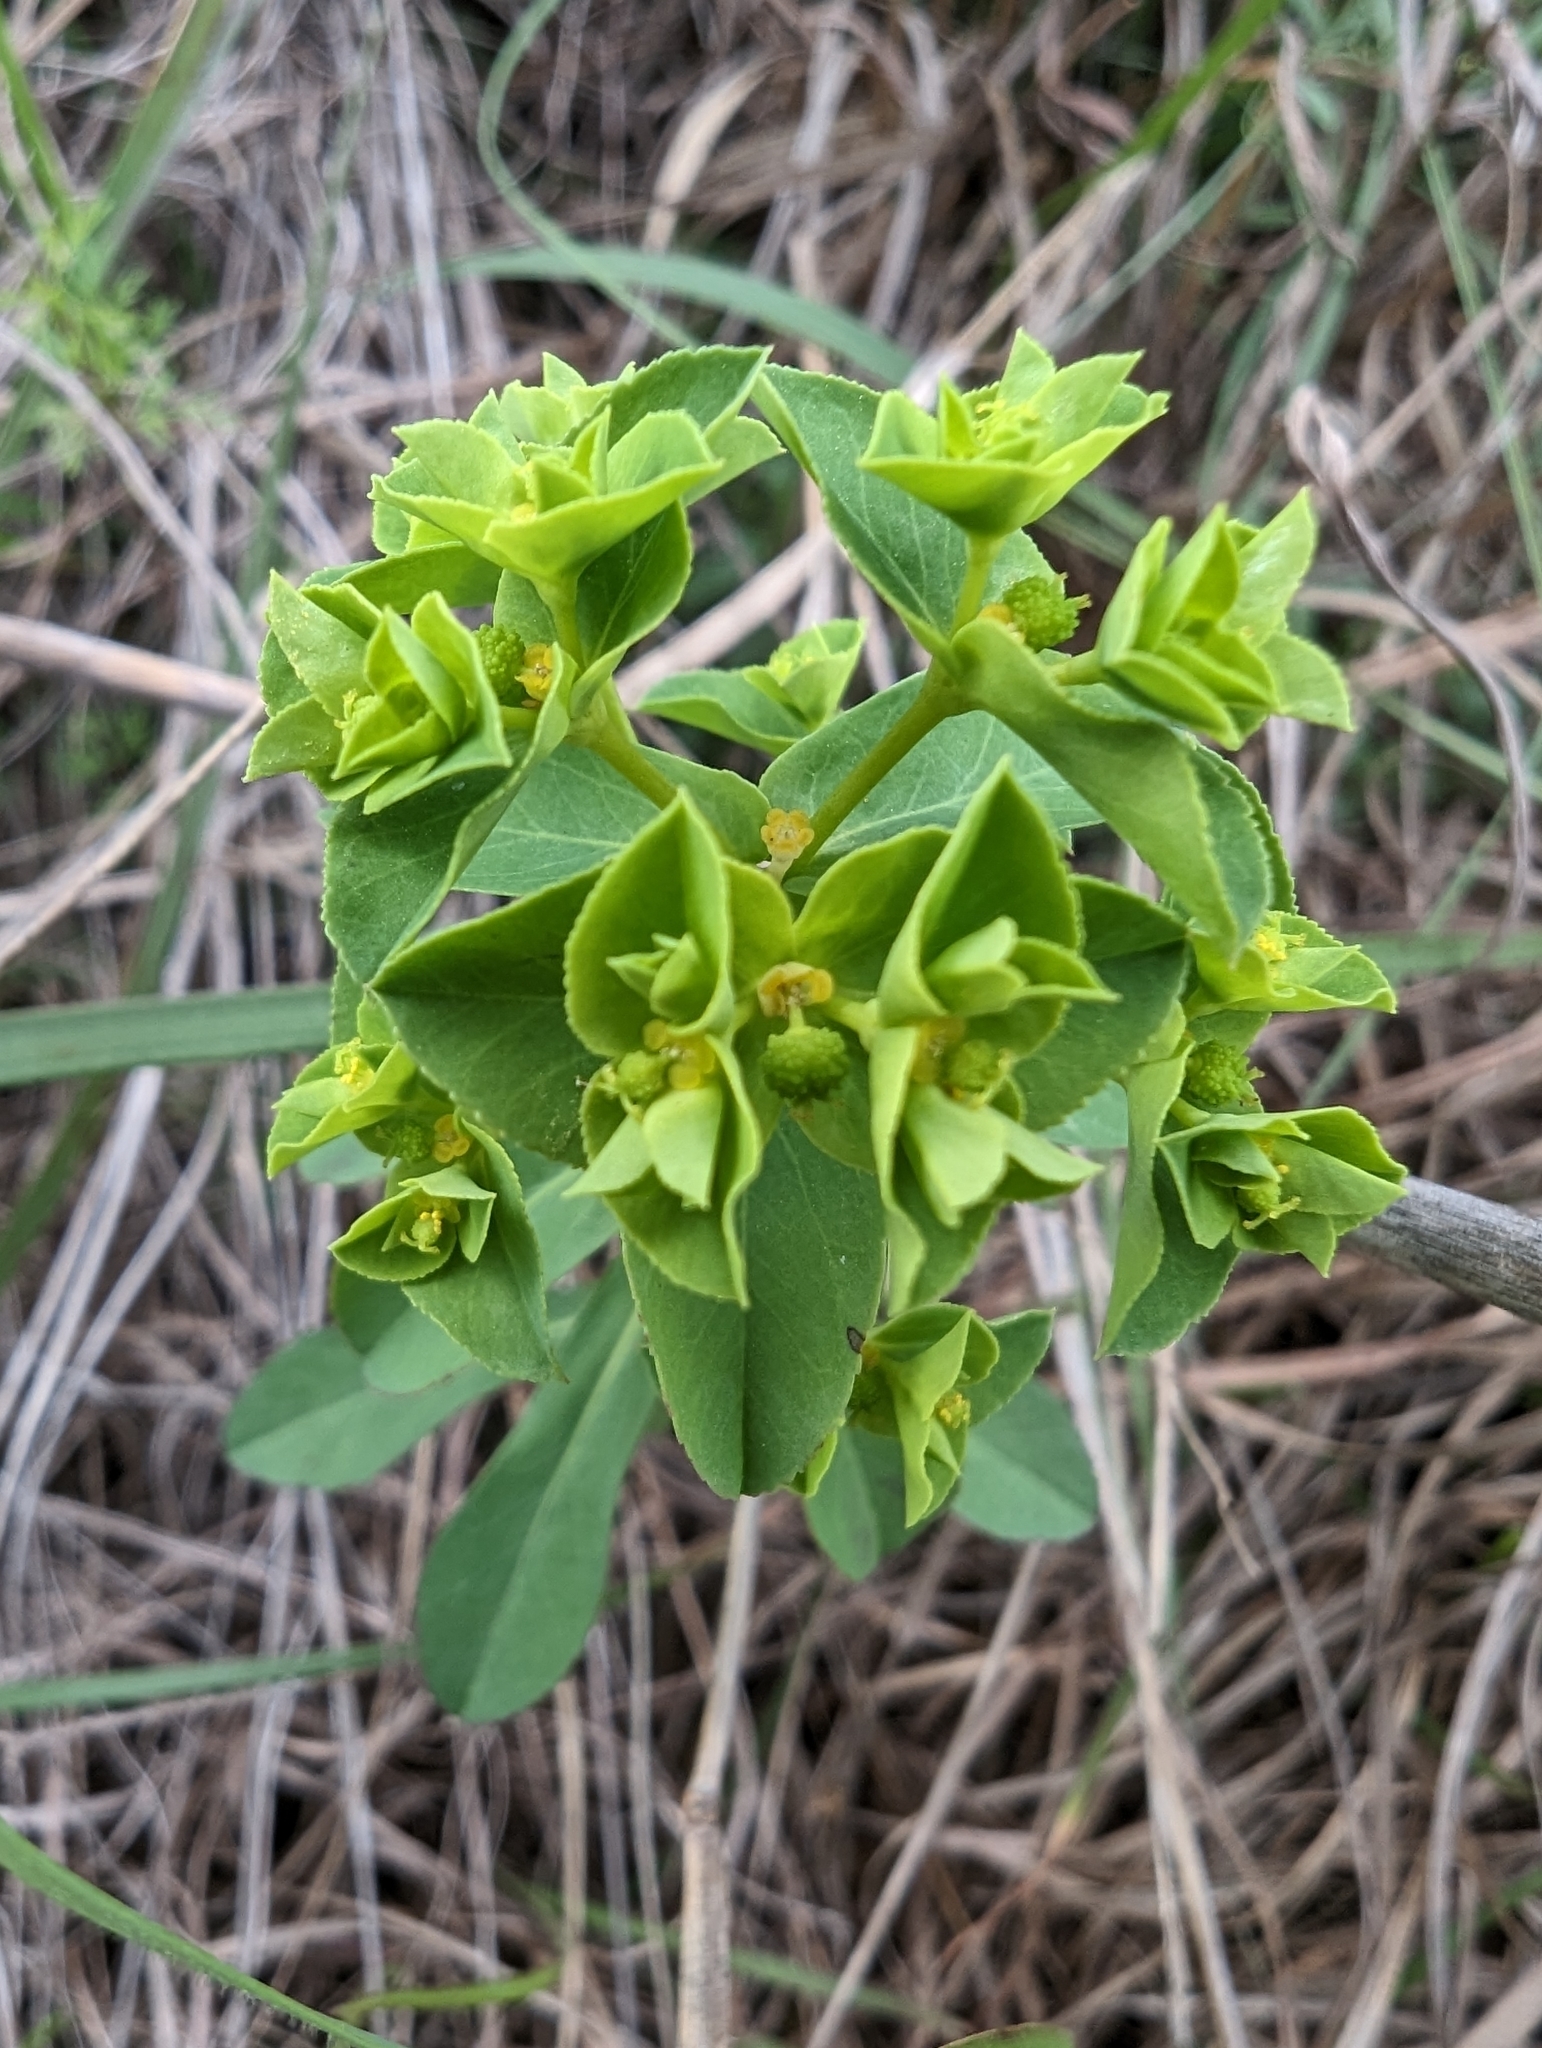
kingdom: Plantae
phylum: Tracheophyta
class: Magnoliopsida
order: Malpighiales
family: Euphorbiaceae
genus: Euphorbia
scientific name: Euphorbia spathulata
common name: Blunt spurge
